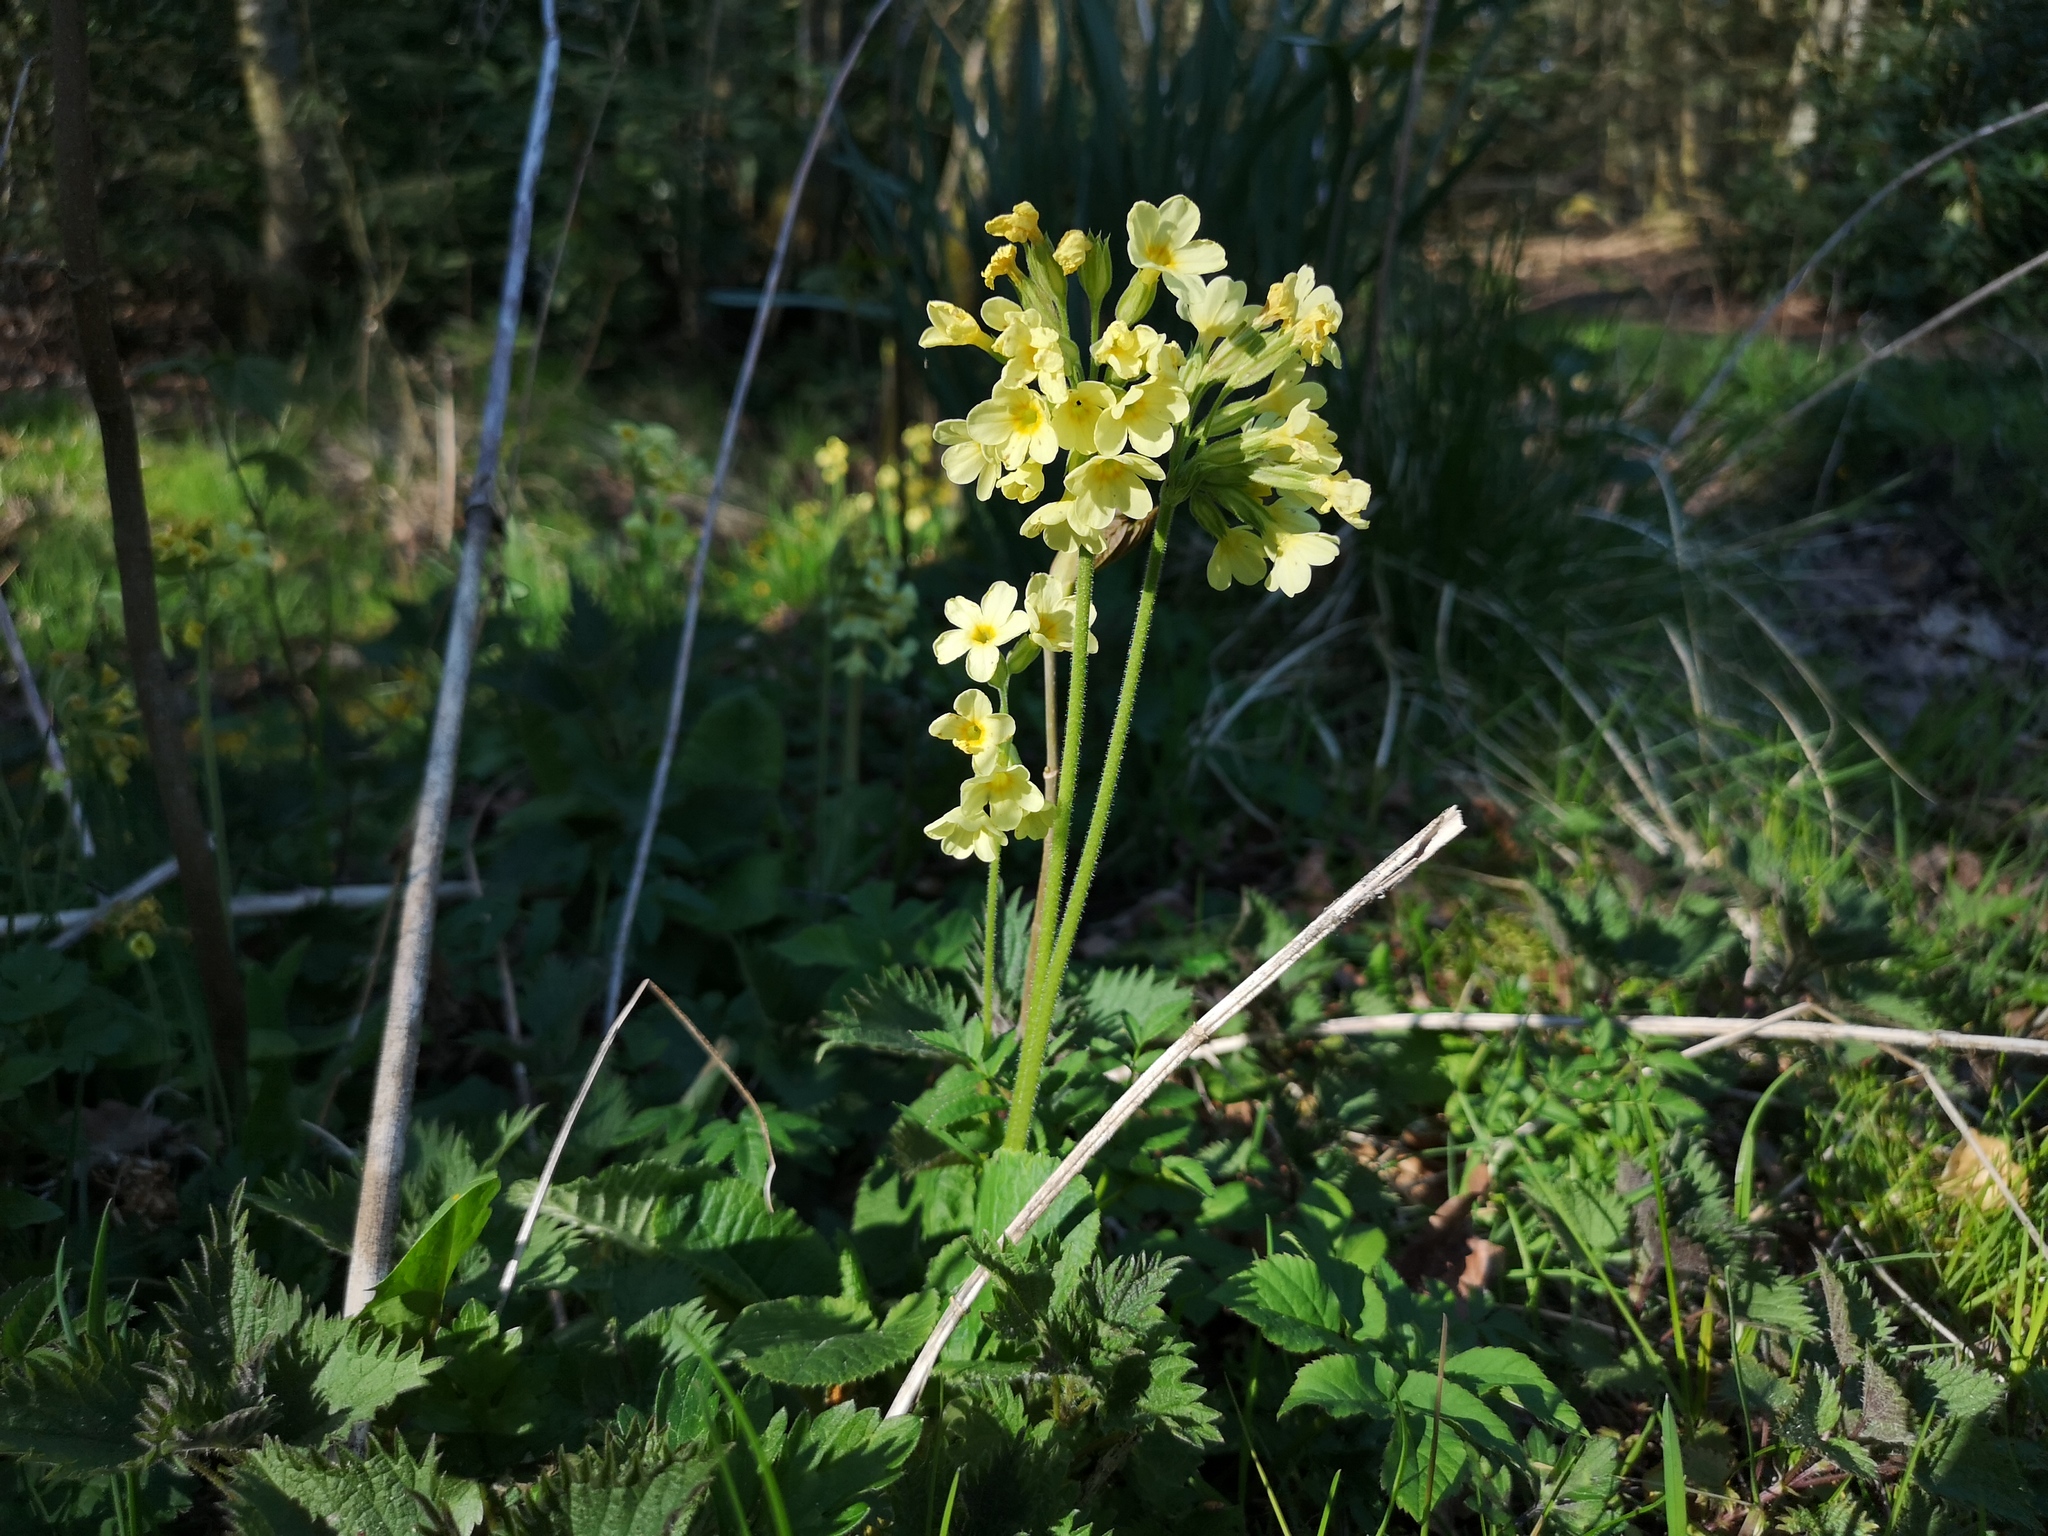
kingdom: Plantae
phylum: Tracheophyta
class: Magnoliopsida
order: Ericales
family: Primulaceae
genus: Primula
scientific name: Primula elatior
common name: Oxlip
